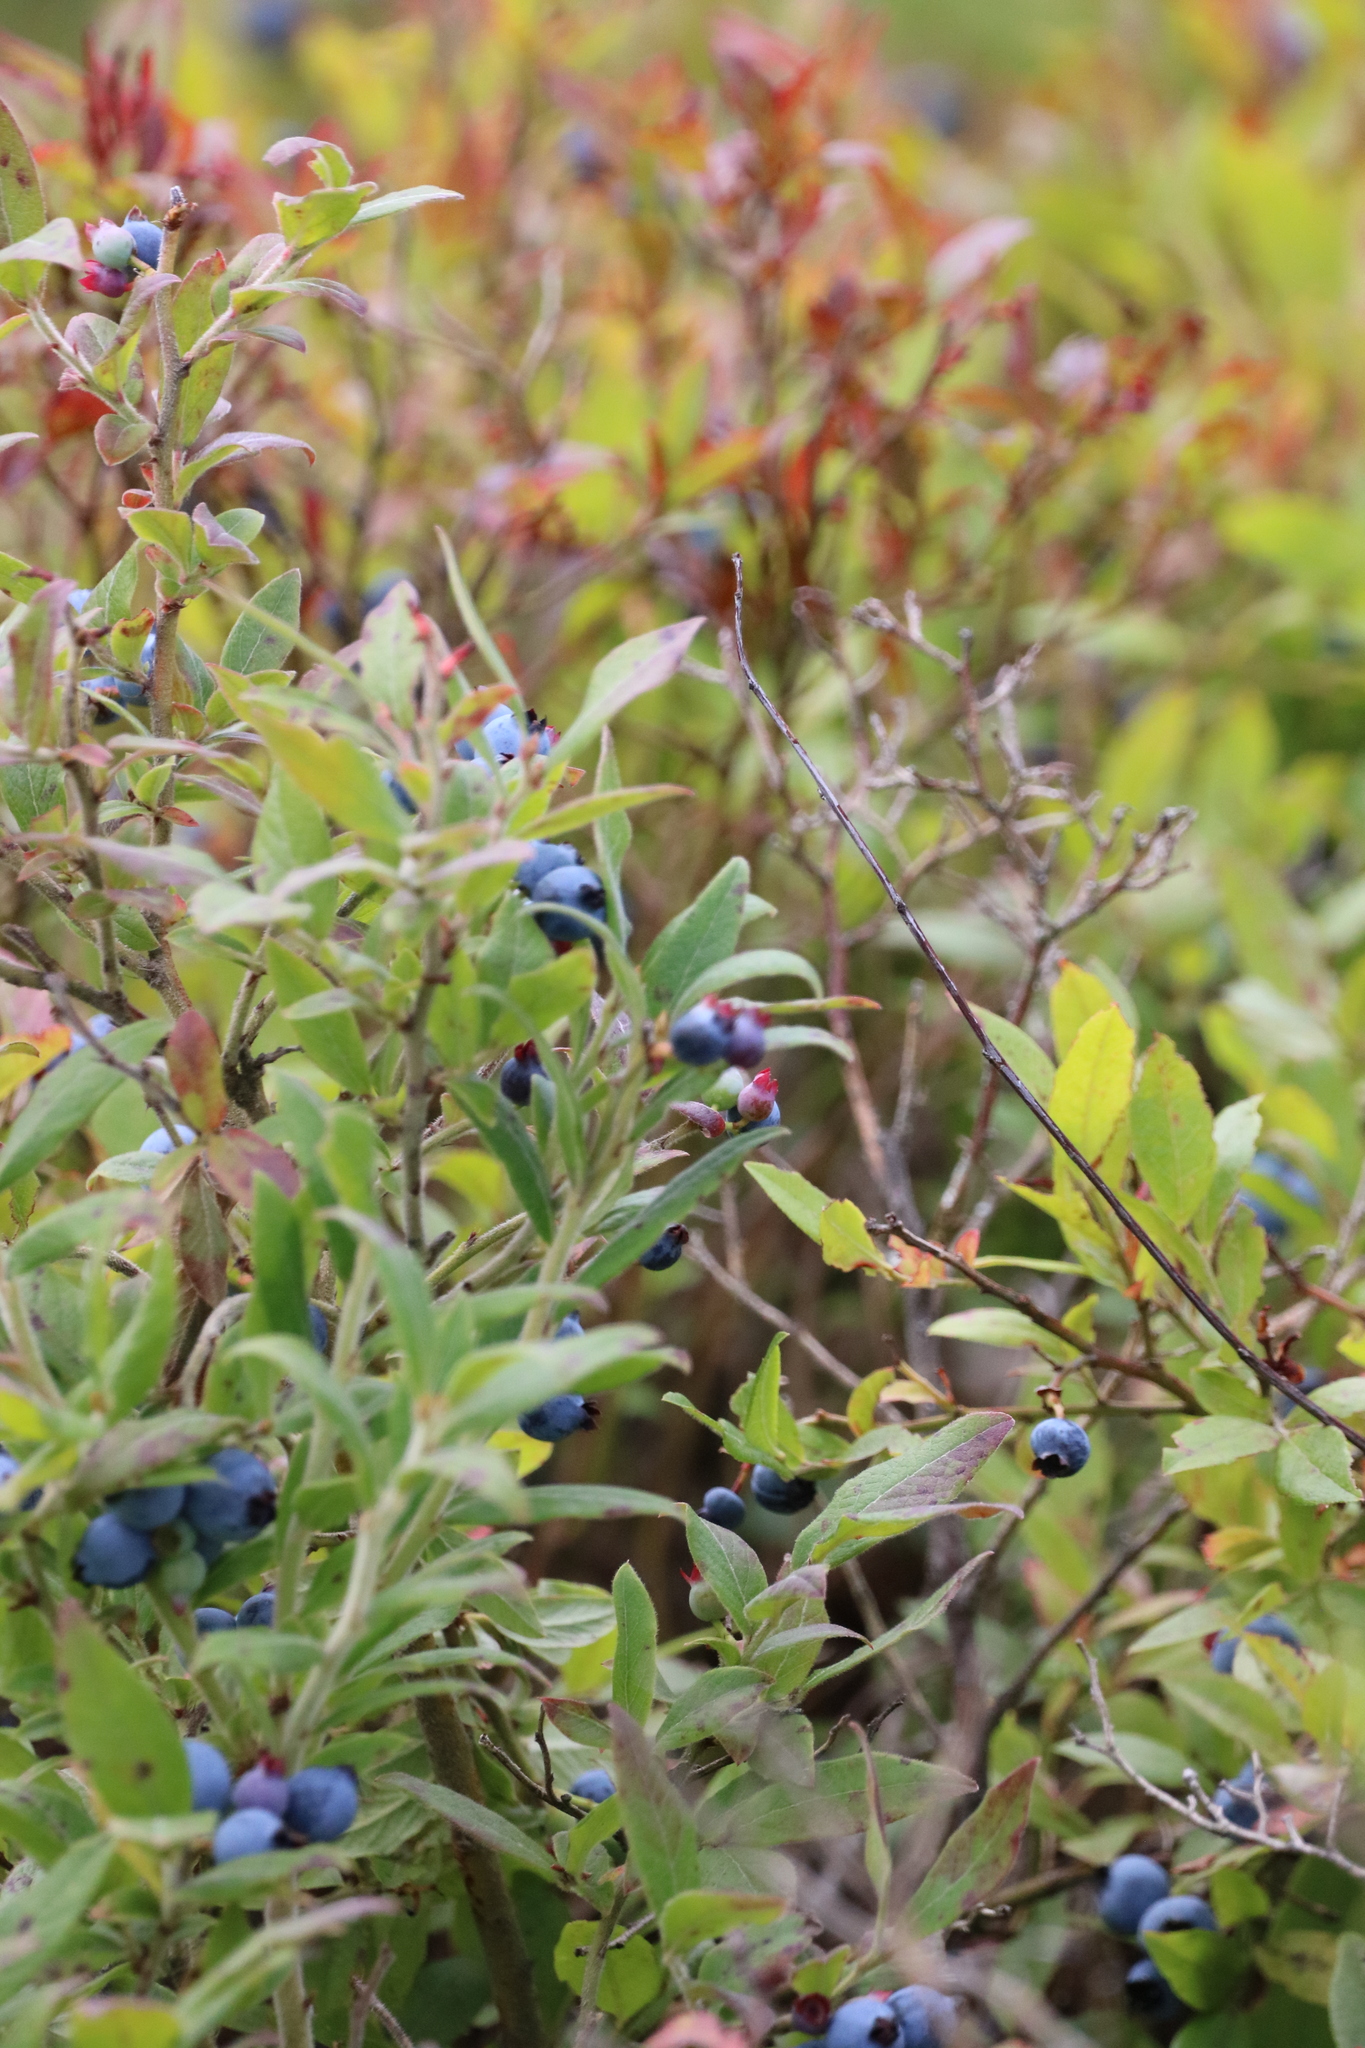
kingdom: Plantae
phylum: Tracheophyta
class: Magnoliopsida
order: Ericales
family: Ericaceae
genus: Vaccinium
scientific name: Vaccinium myrtilloides
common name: Canada blueberry
